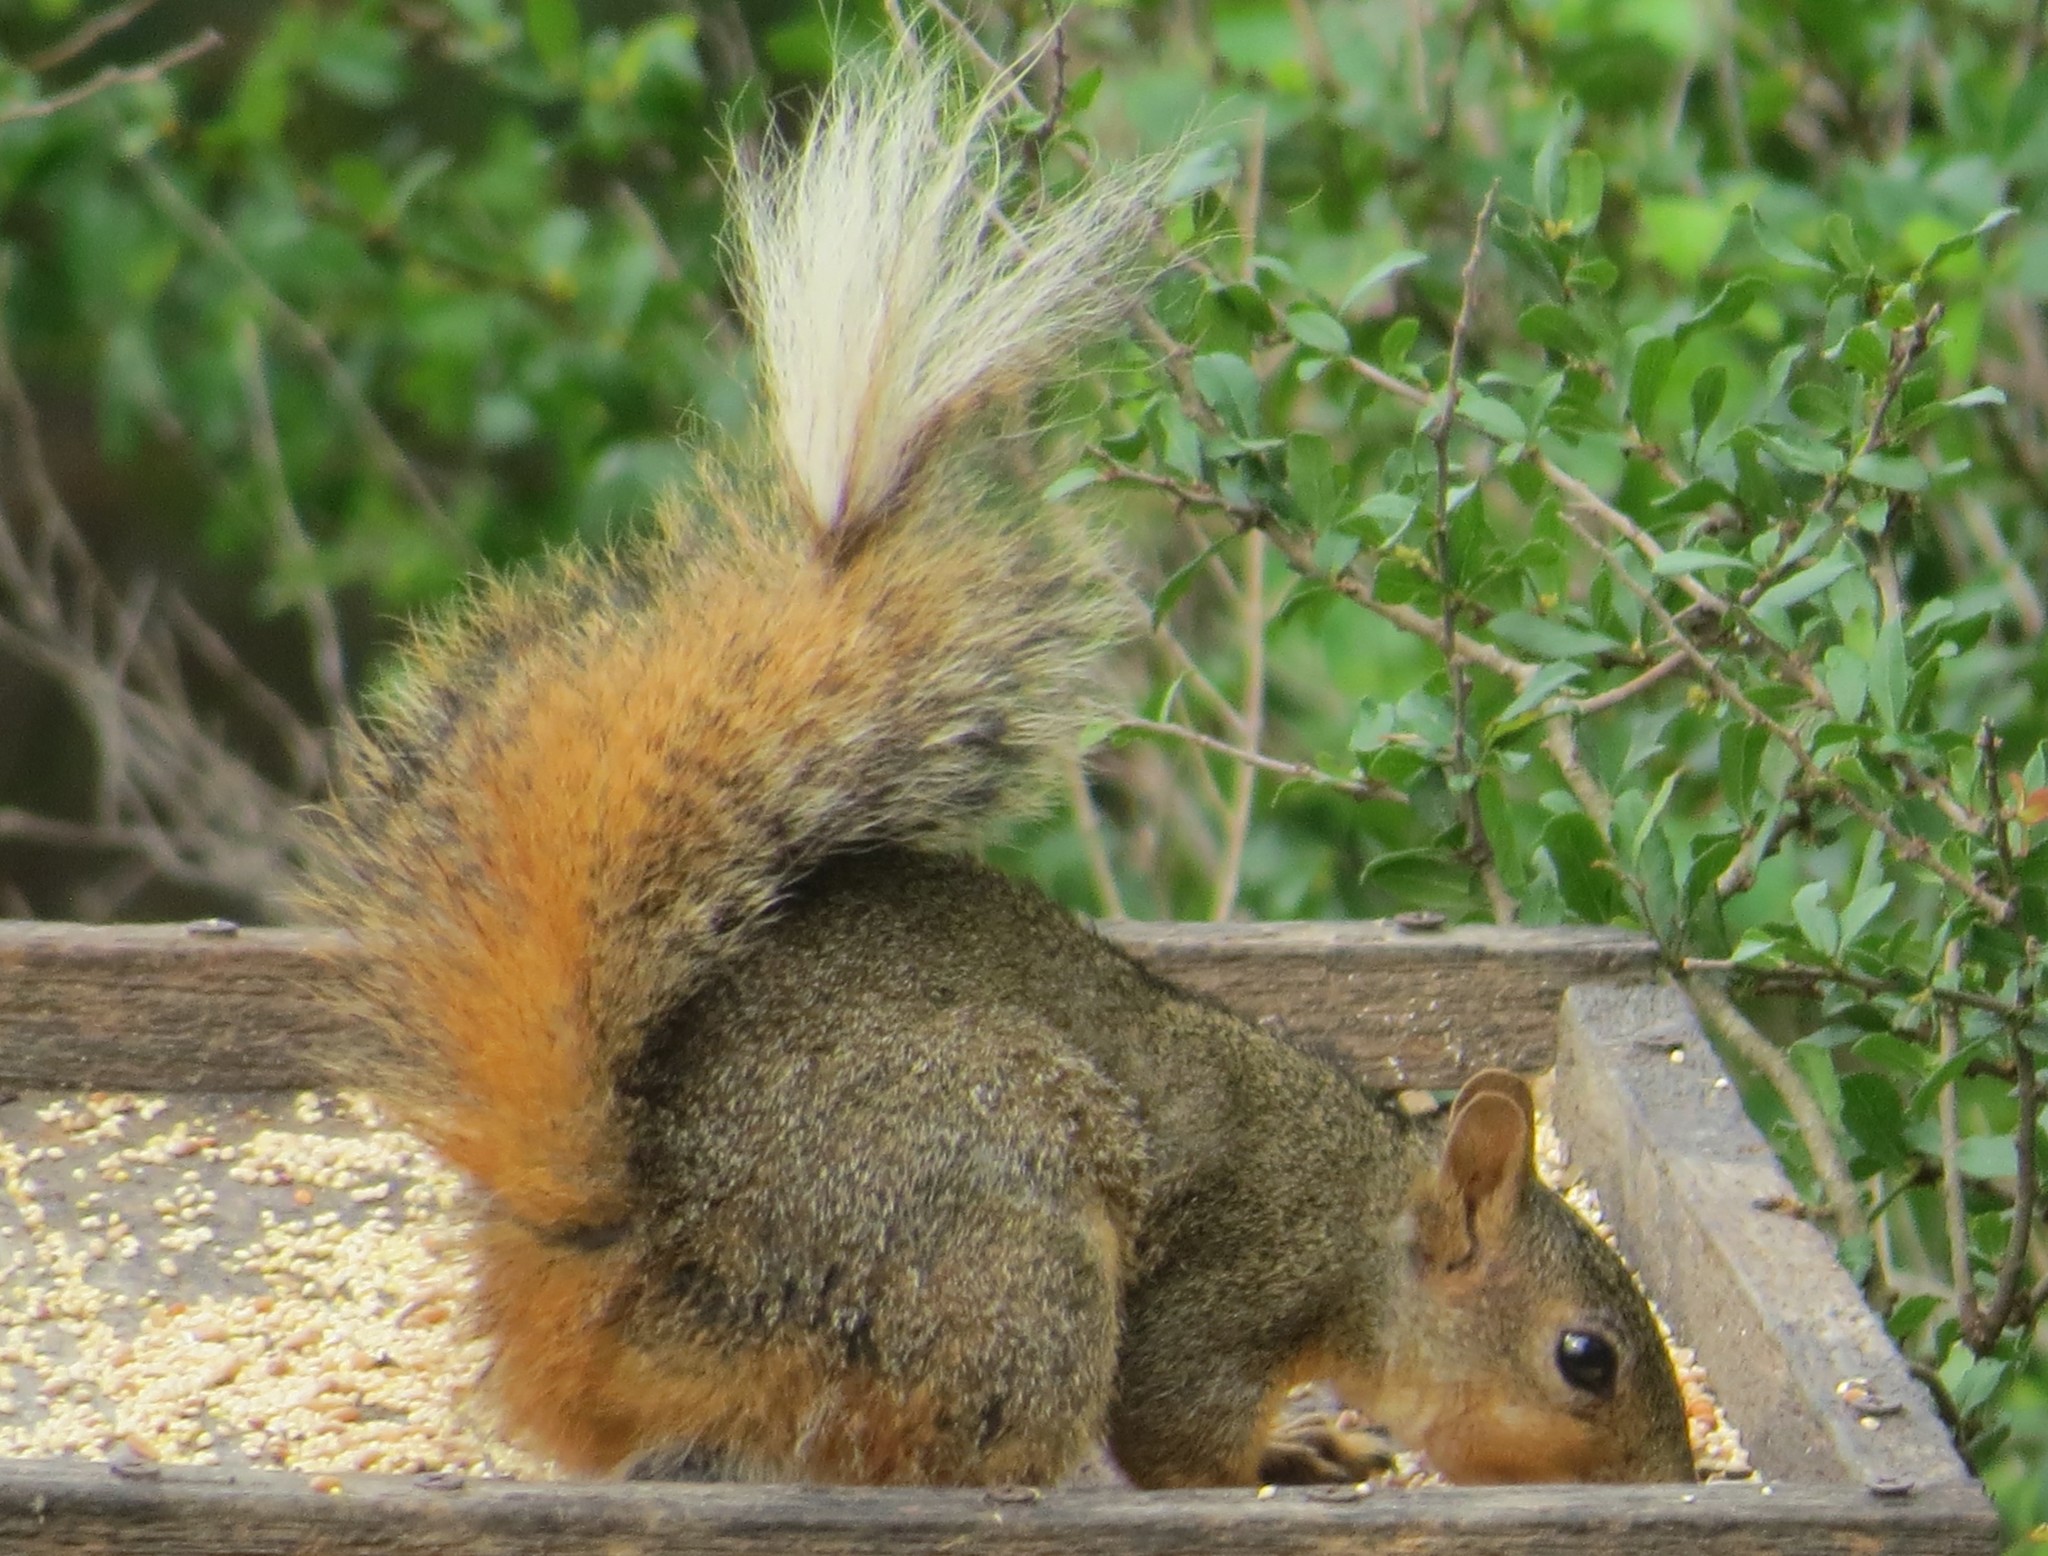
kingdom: Animalia
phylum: Chordata
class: Mammalia
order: Rodentia
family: Sciuridae
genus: Sciurus
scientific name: Sciurus niger
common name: Fox squirrel
